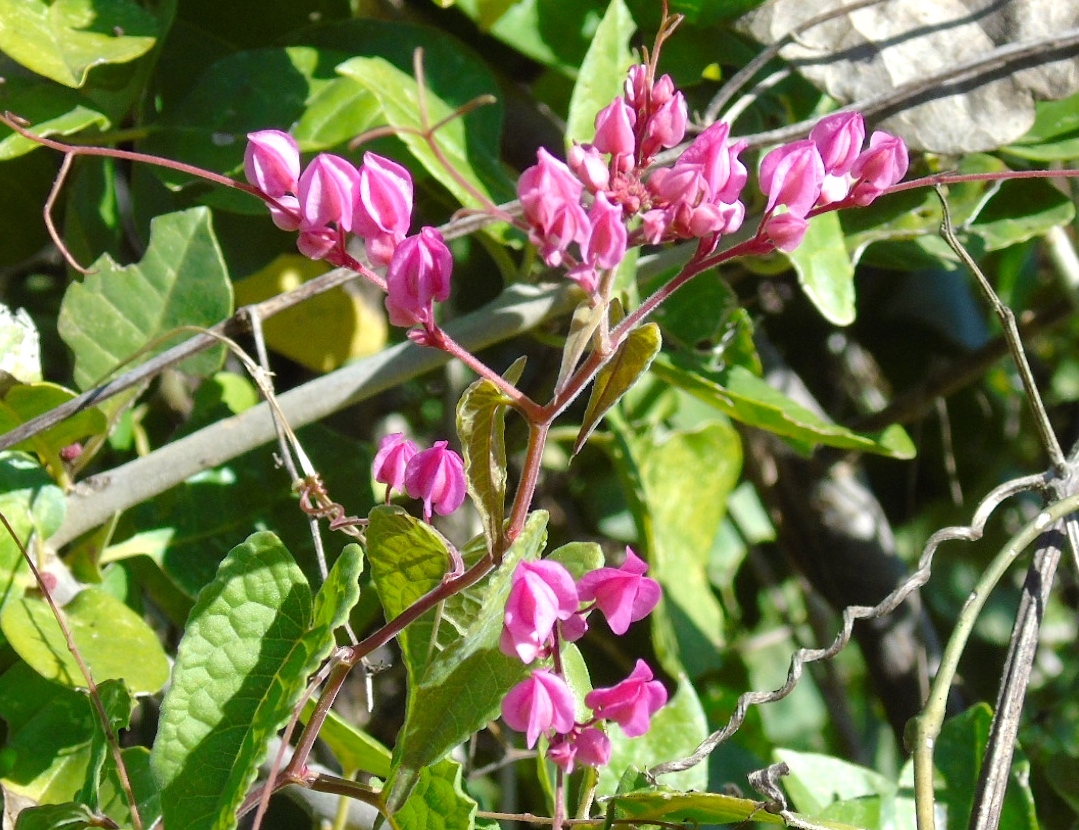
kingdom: Plantae
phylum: Tracheophyta
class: Magnoliopsida
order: Caryophyllales
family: Polygonaceae
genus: Antigonon
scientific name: Antigonon leptopus
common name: Coral vine
